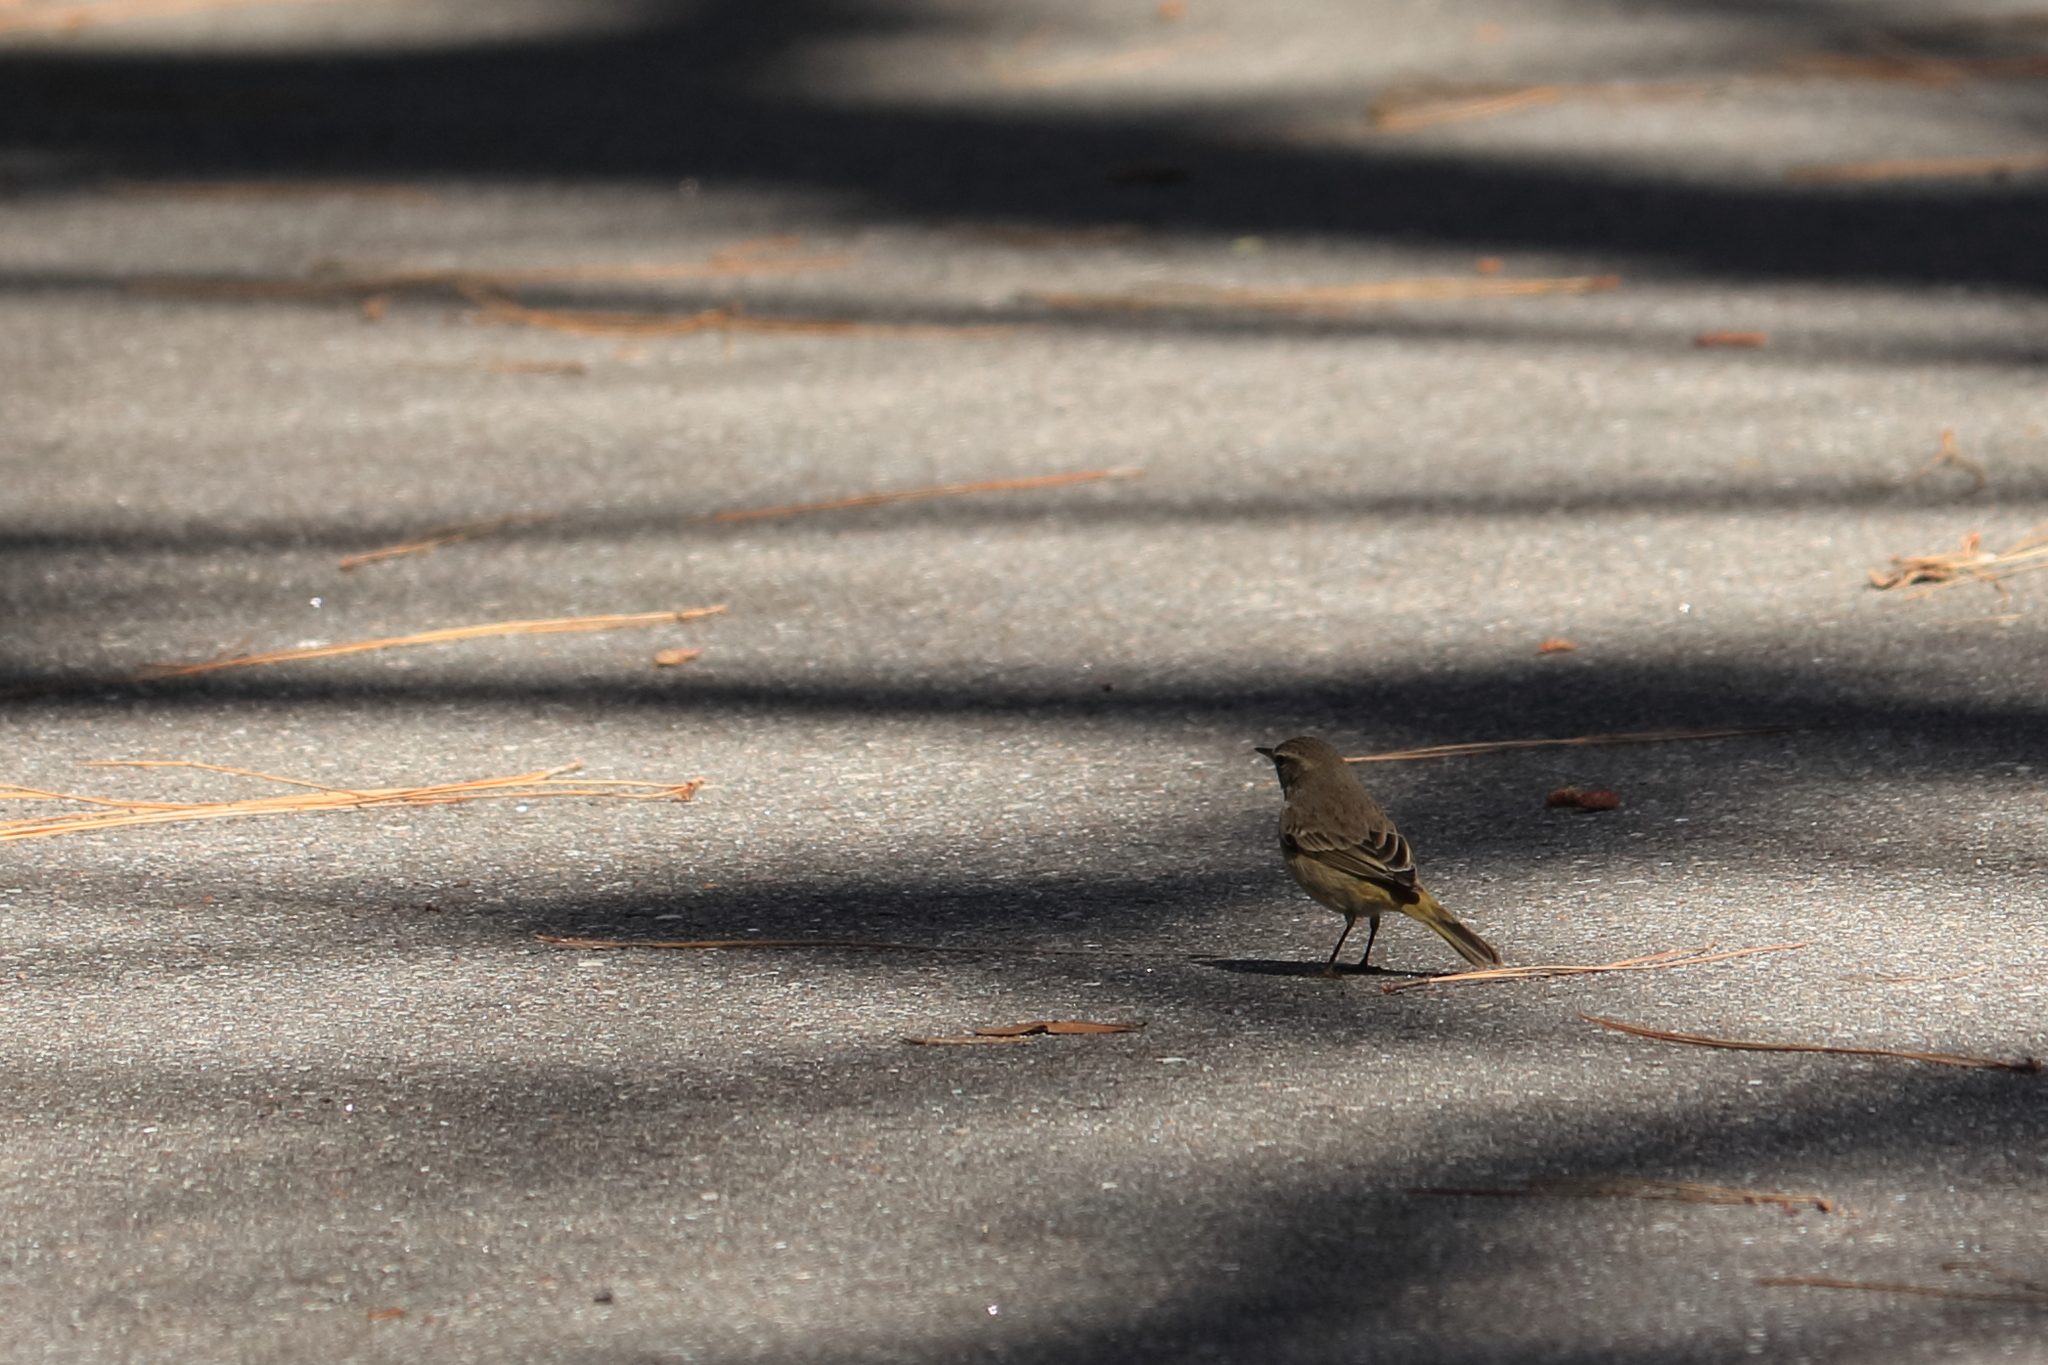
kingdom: Animalia
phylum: Chordata
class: Aves
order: Passeriformes
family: Parulidae
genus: Setophaga
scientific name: Setophaga palmarum
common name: Palm warbler
